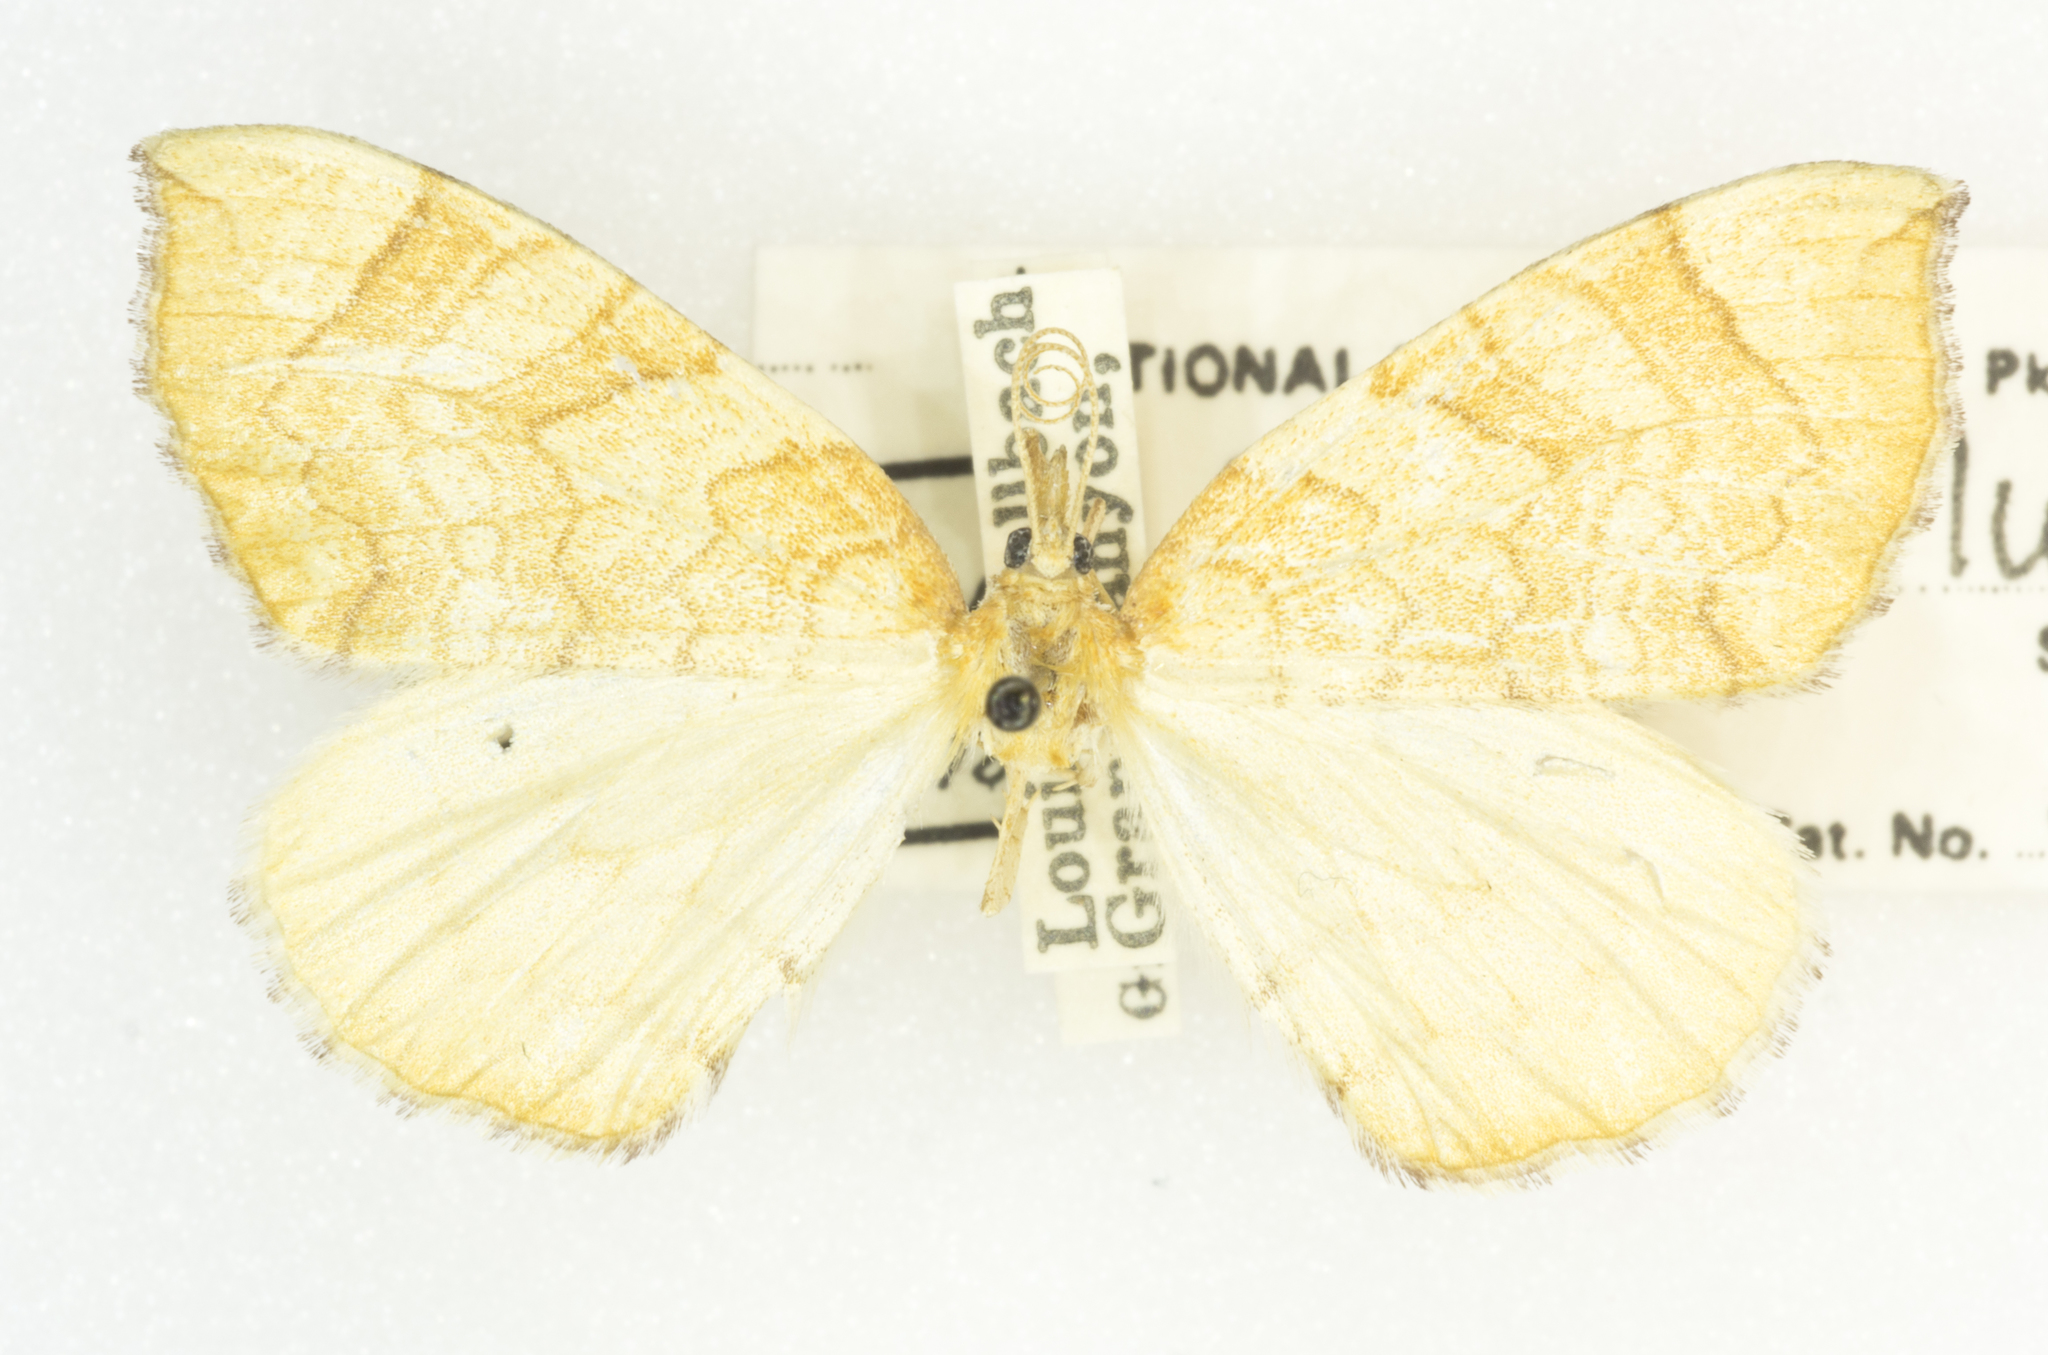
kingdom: Animalia
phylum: Arthropoda
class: Insecta
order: Lepidoptera
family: Geometridae
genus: Eulithis
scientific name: Eulithis luteolata
